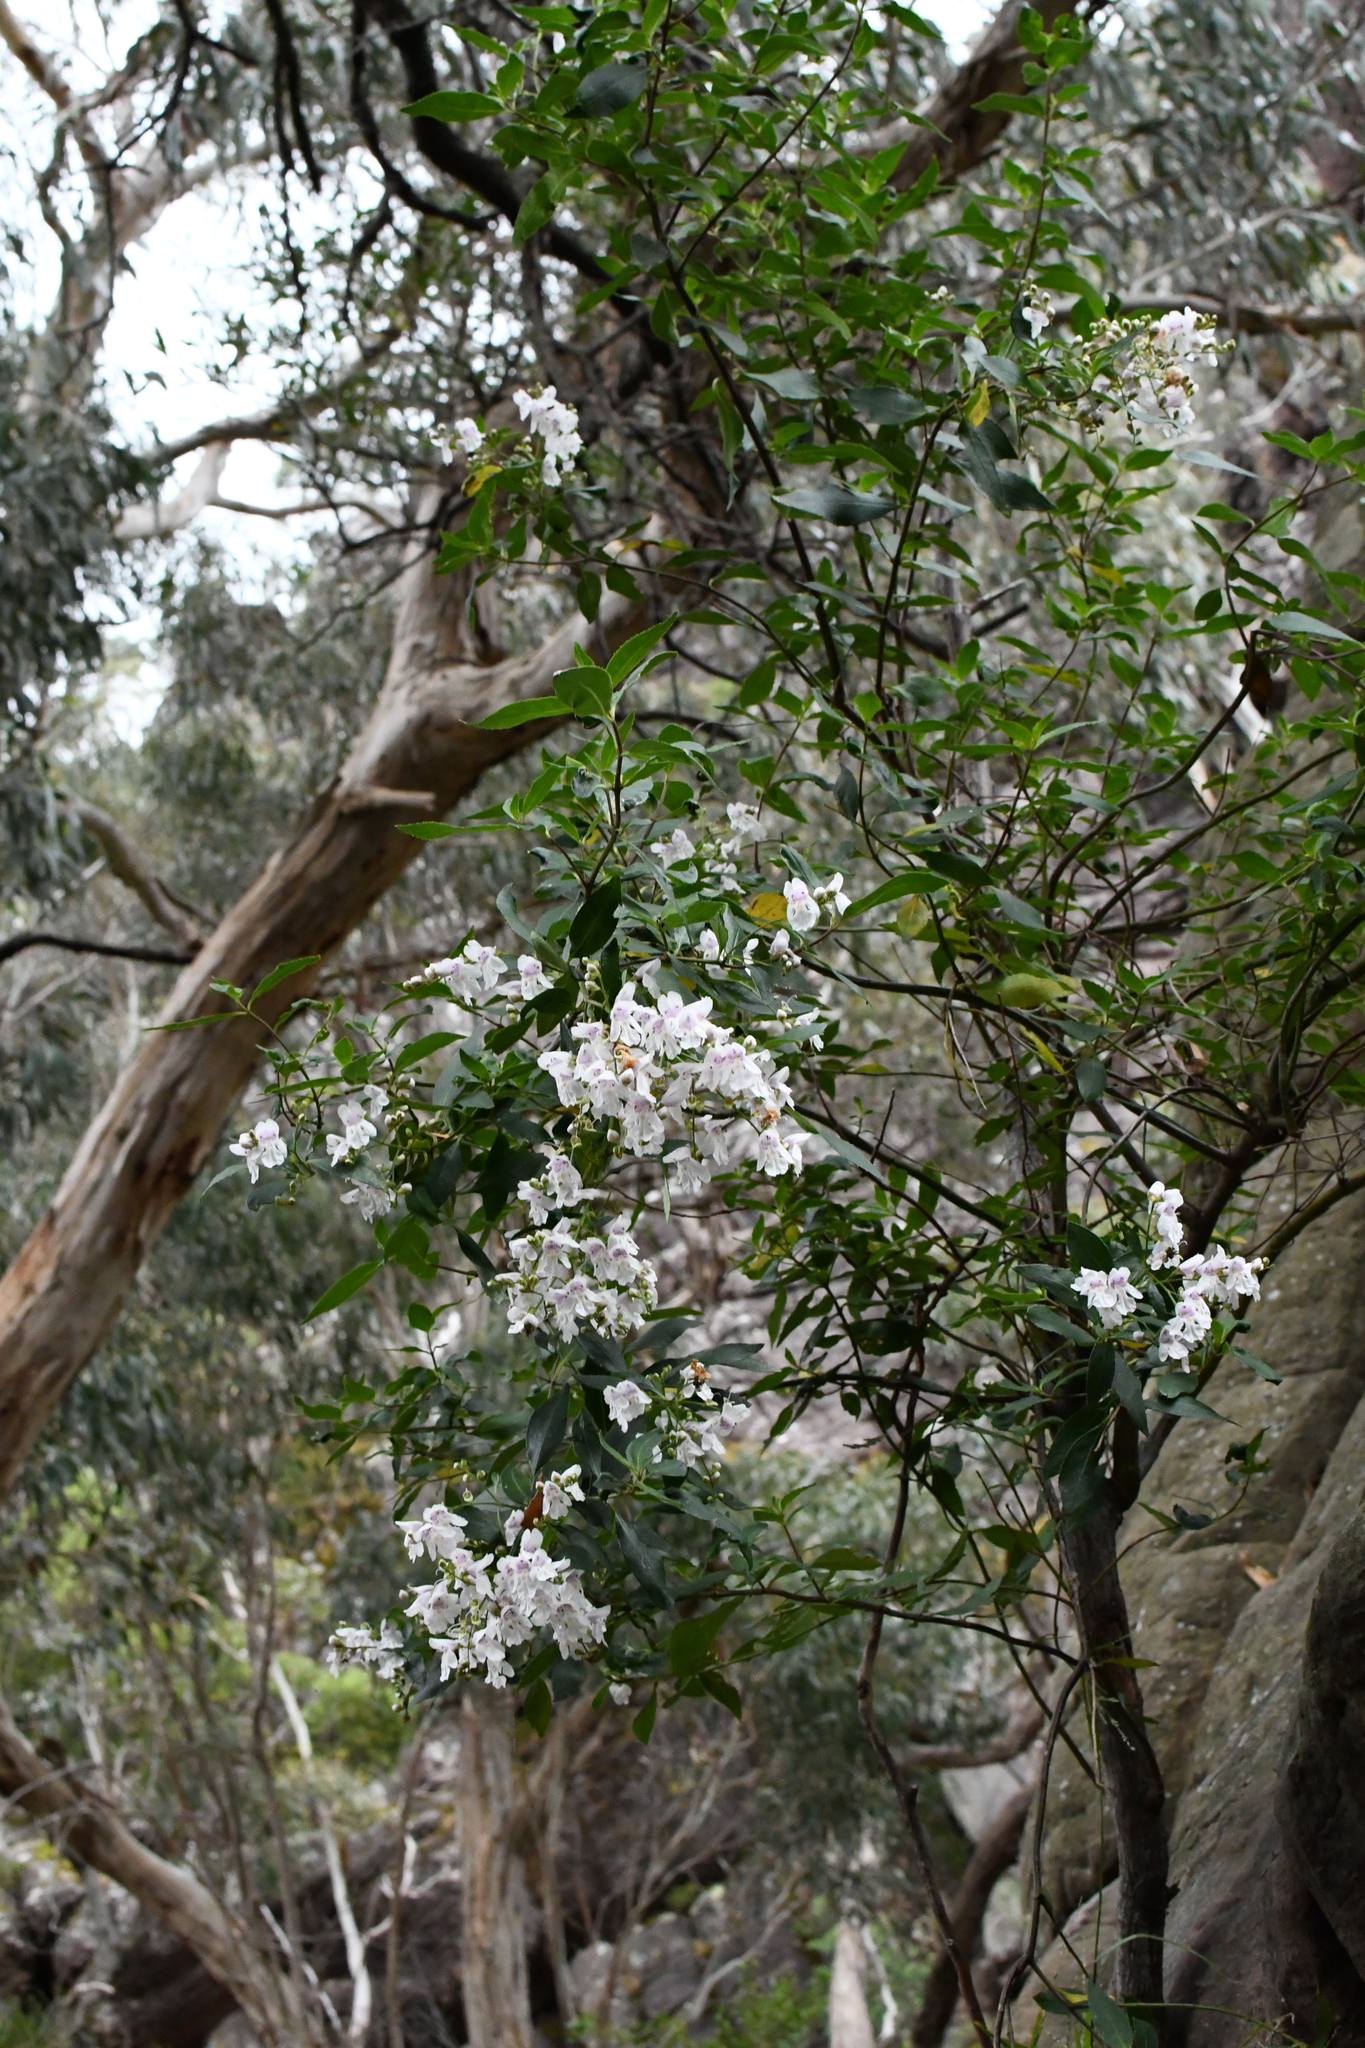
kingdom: Plantae
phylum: Tracheophyta
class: Magnoliopsida
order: Lamiales
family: Lamiaceae
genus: Prostanthera
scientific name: Prostanthera lasianthos
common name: Mountain-lilac
